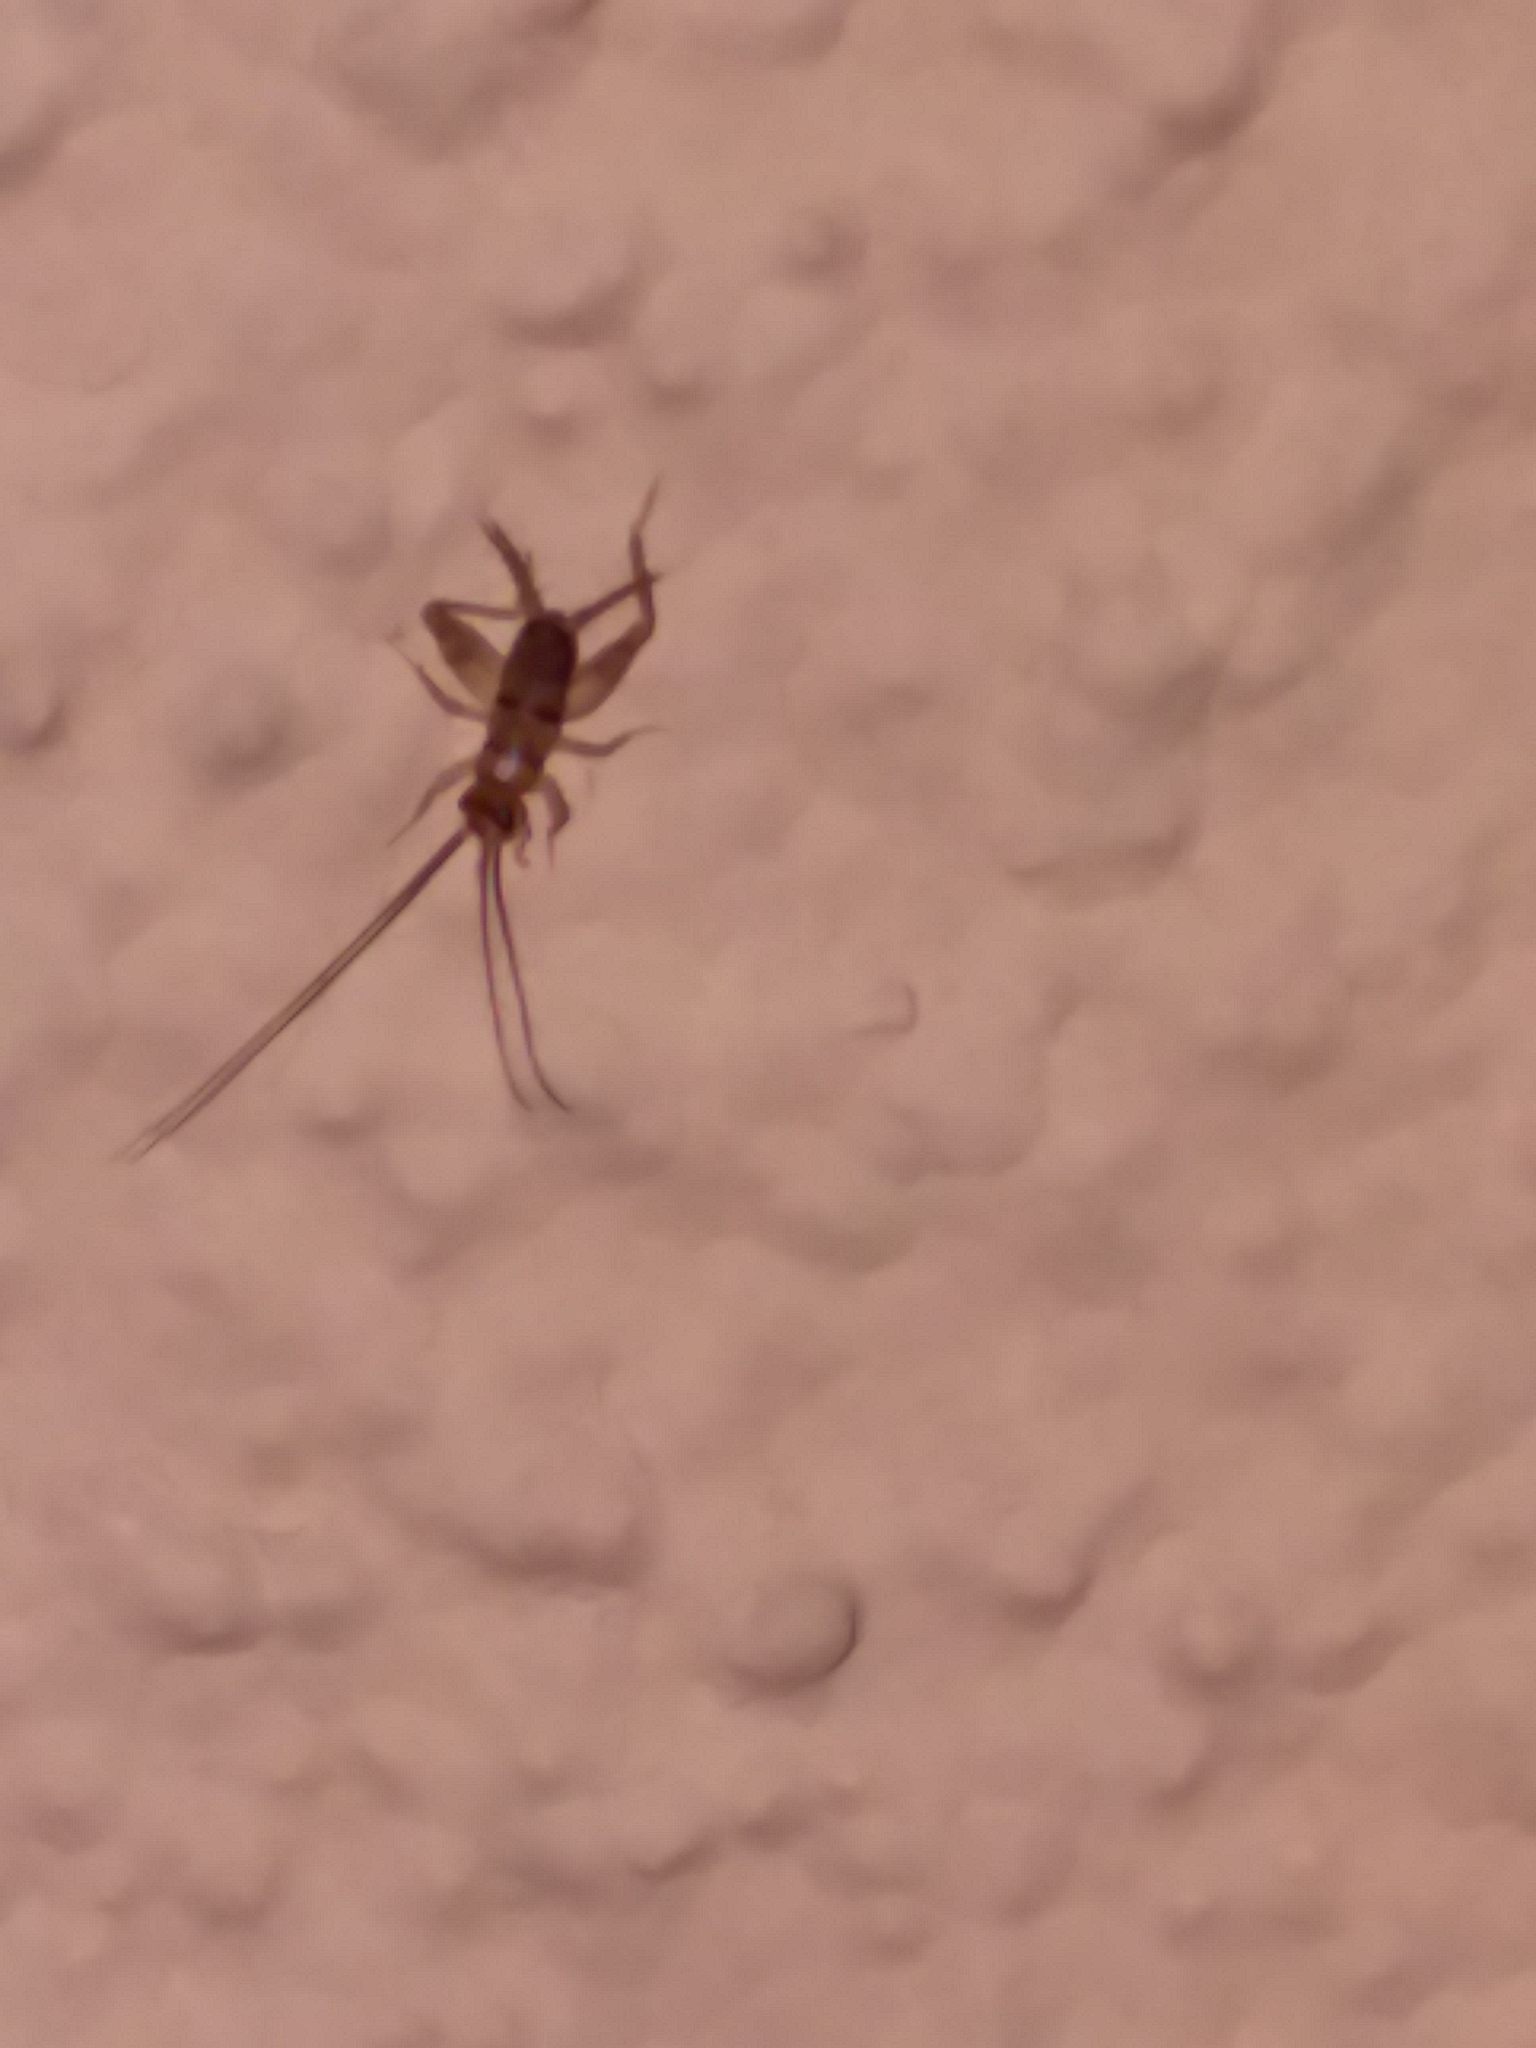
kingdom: Animalia
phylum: Arthropoda
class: Insecta
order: Orthoptera
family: Gryllidae
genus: Gryllodes
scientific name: Gryllodes sigillatus
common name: Tropical house cricket
